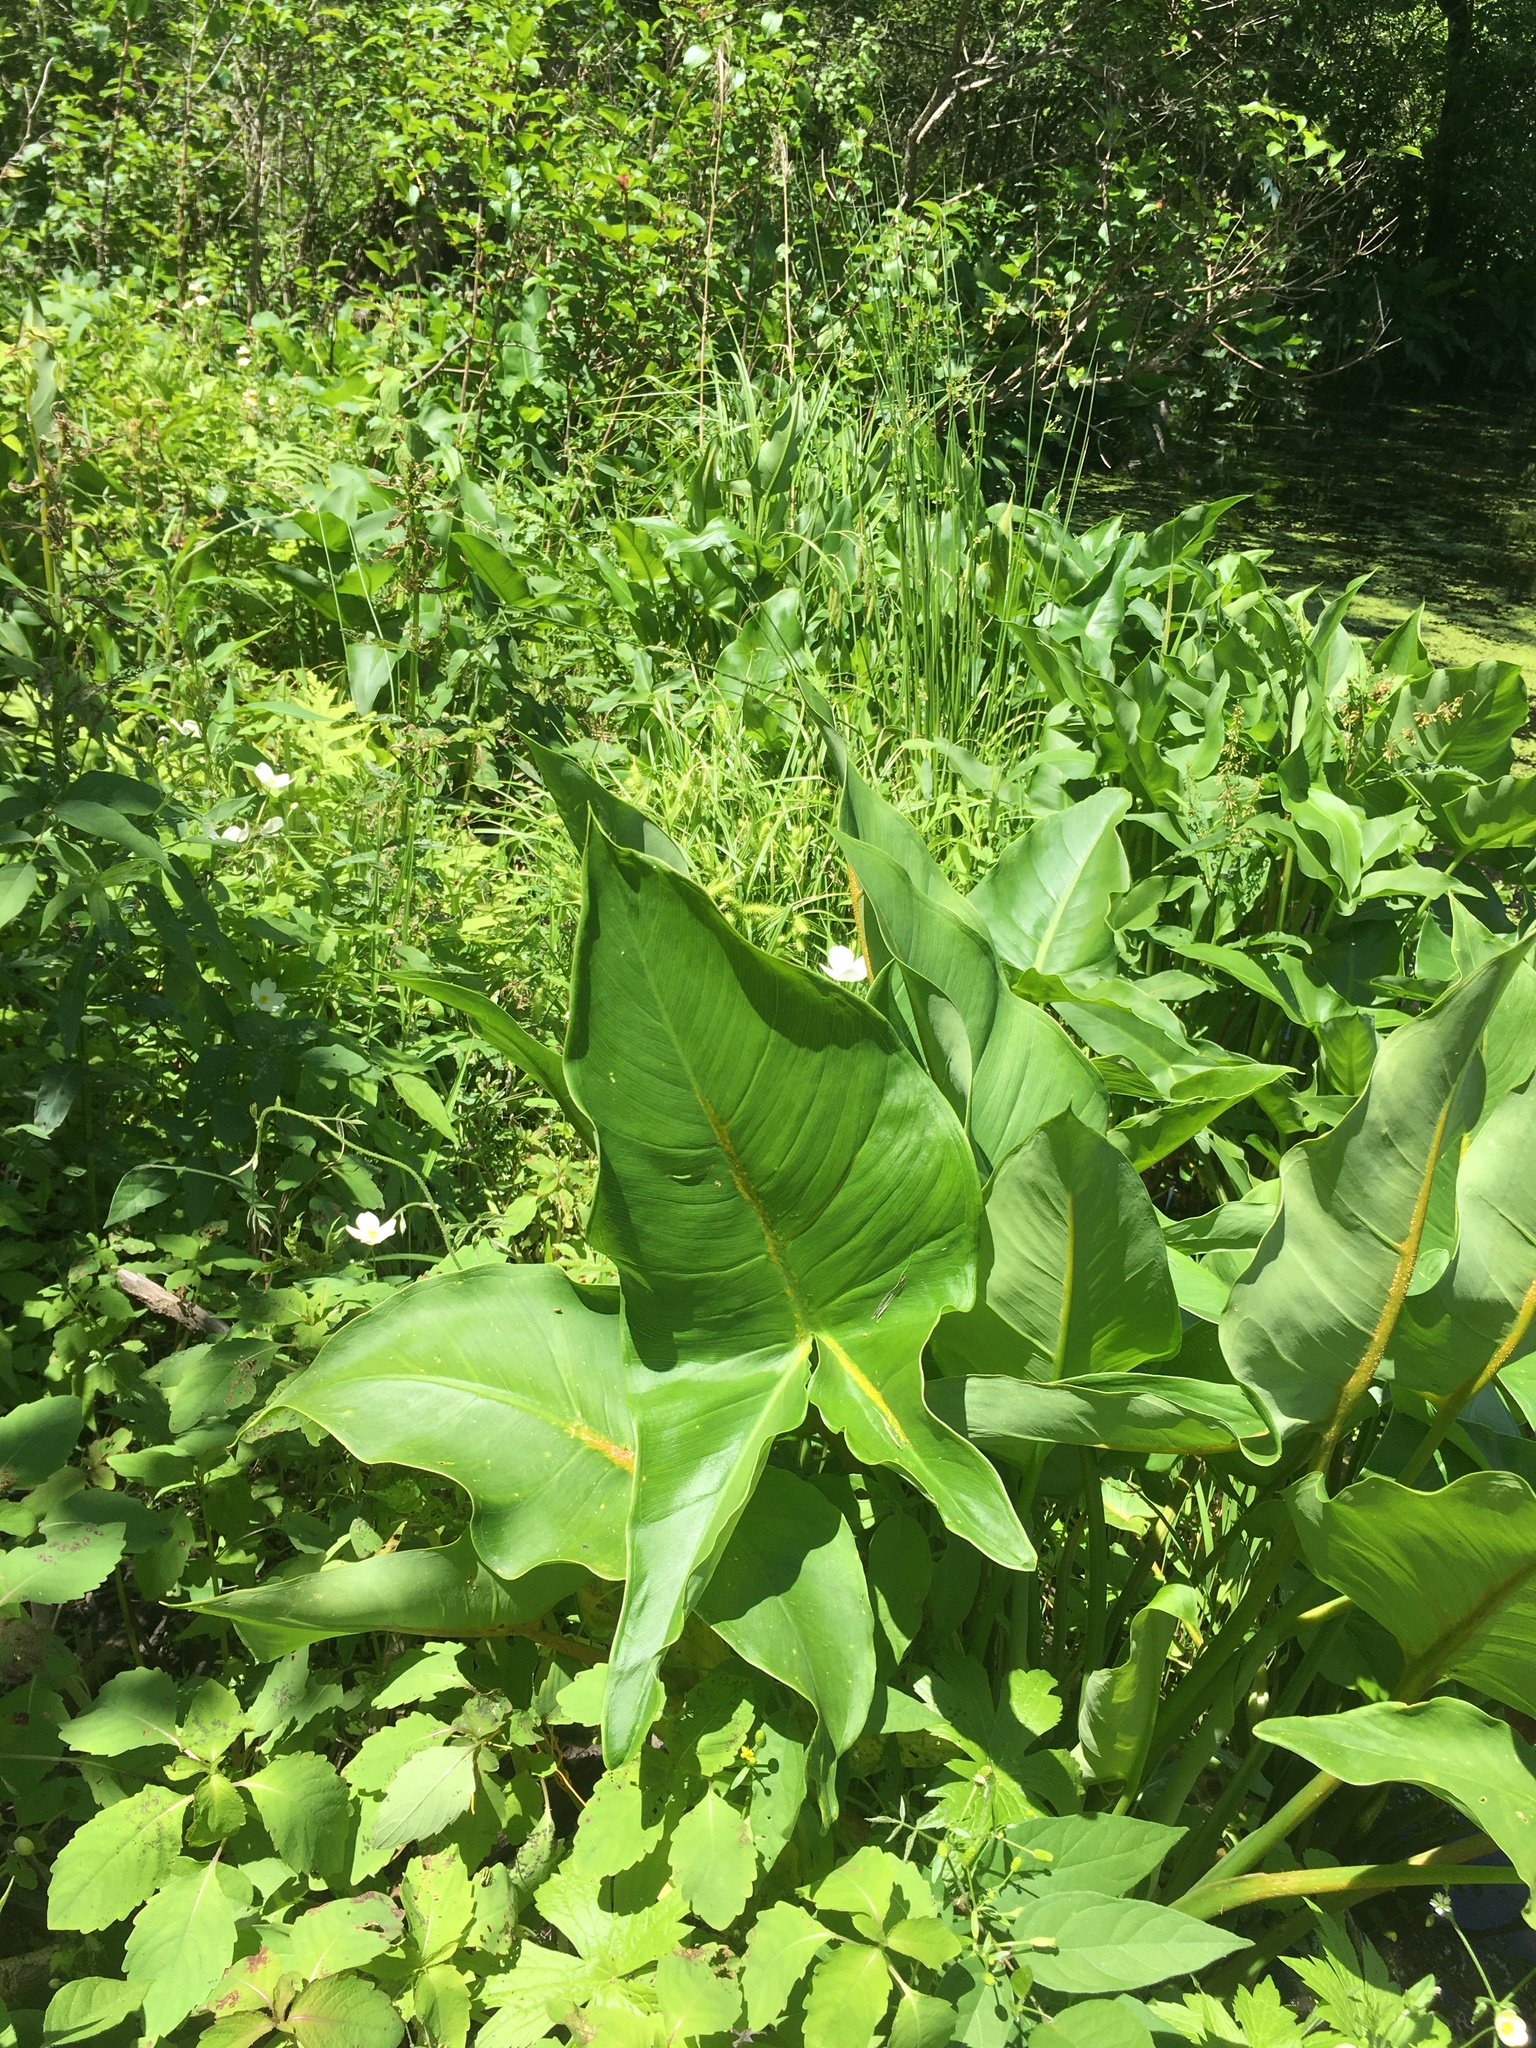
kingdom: Plantae
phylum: Tracheophyta
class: Liliopsida
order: Alismatales
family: Araceae
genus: Peltandra
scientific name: Peltandra virginica
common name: Arrow arum
